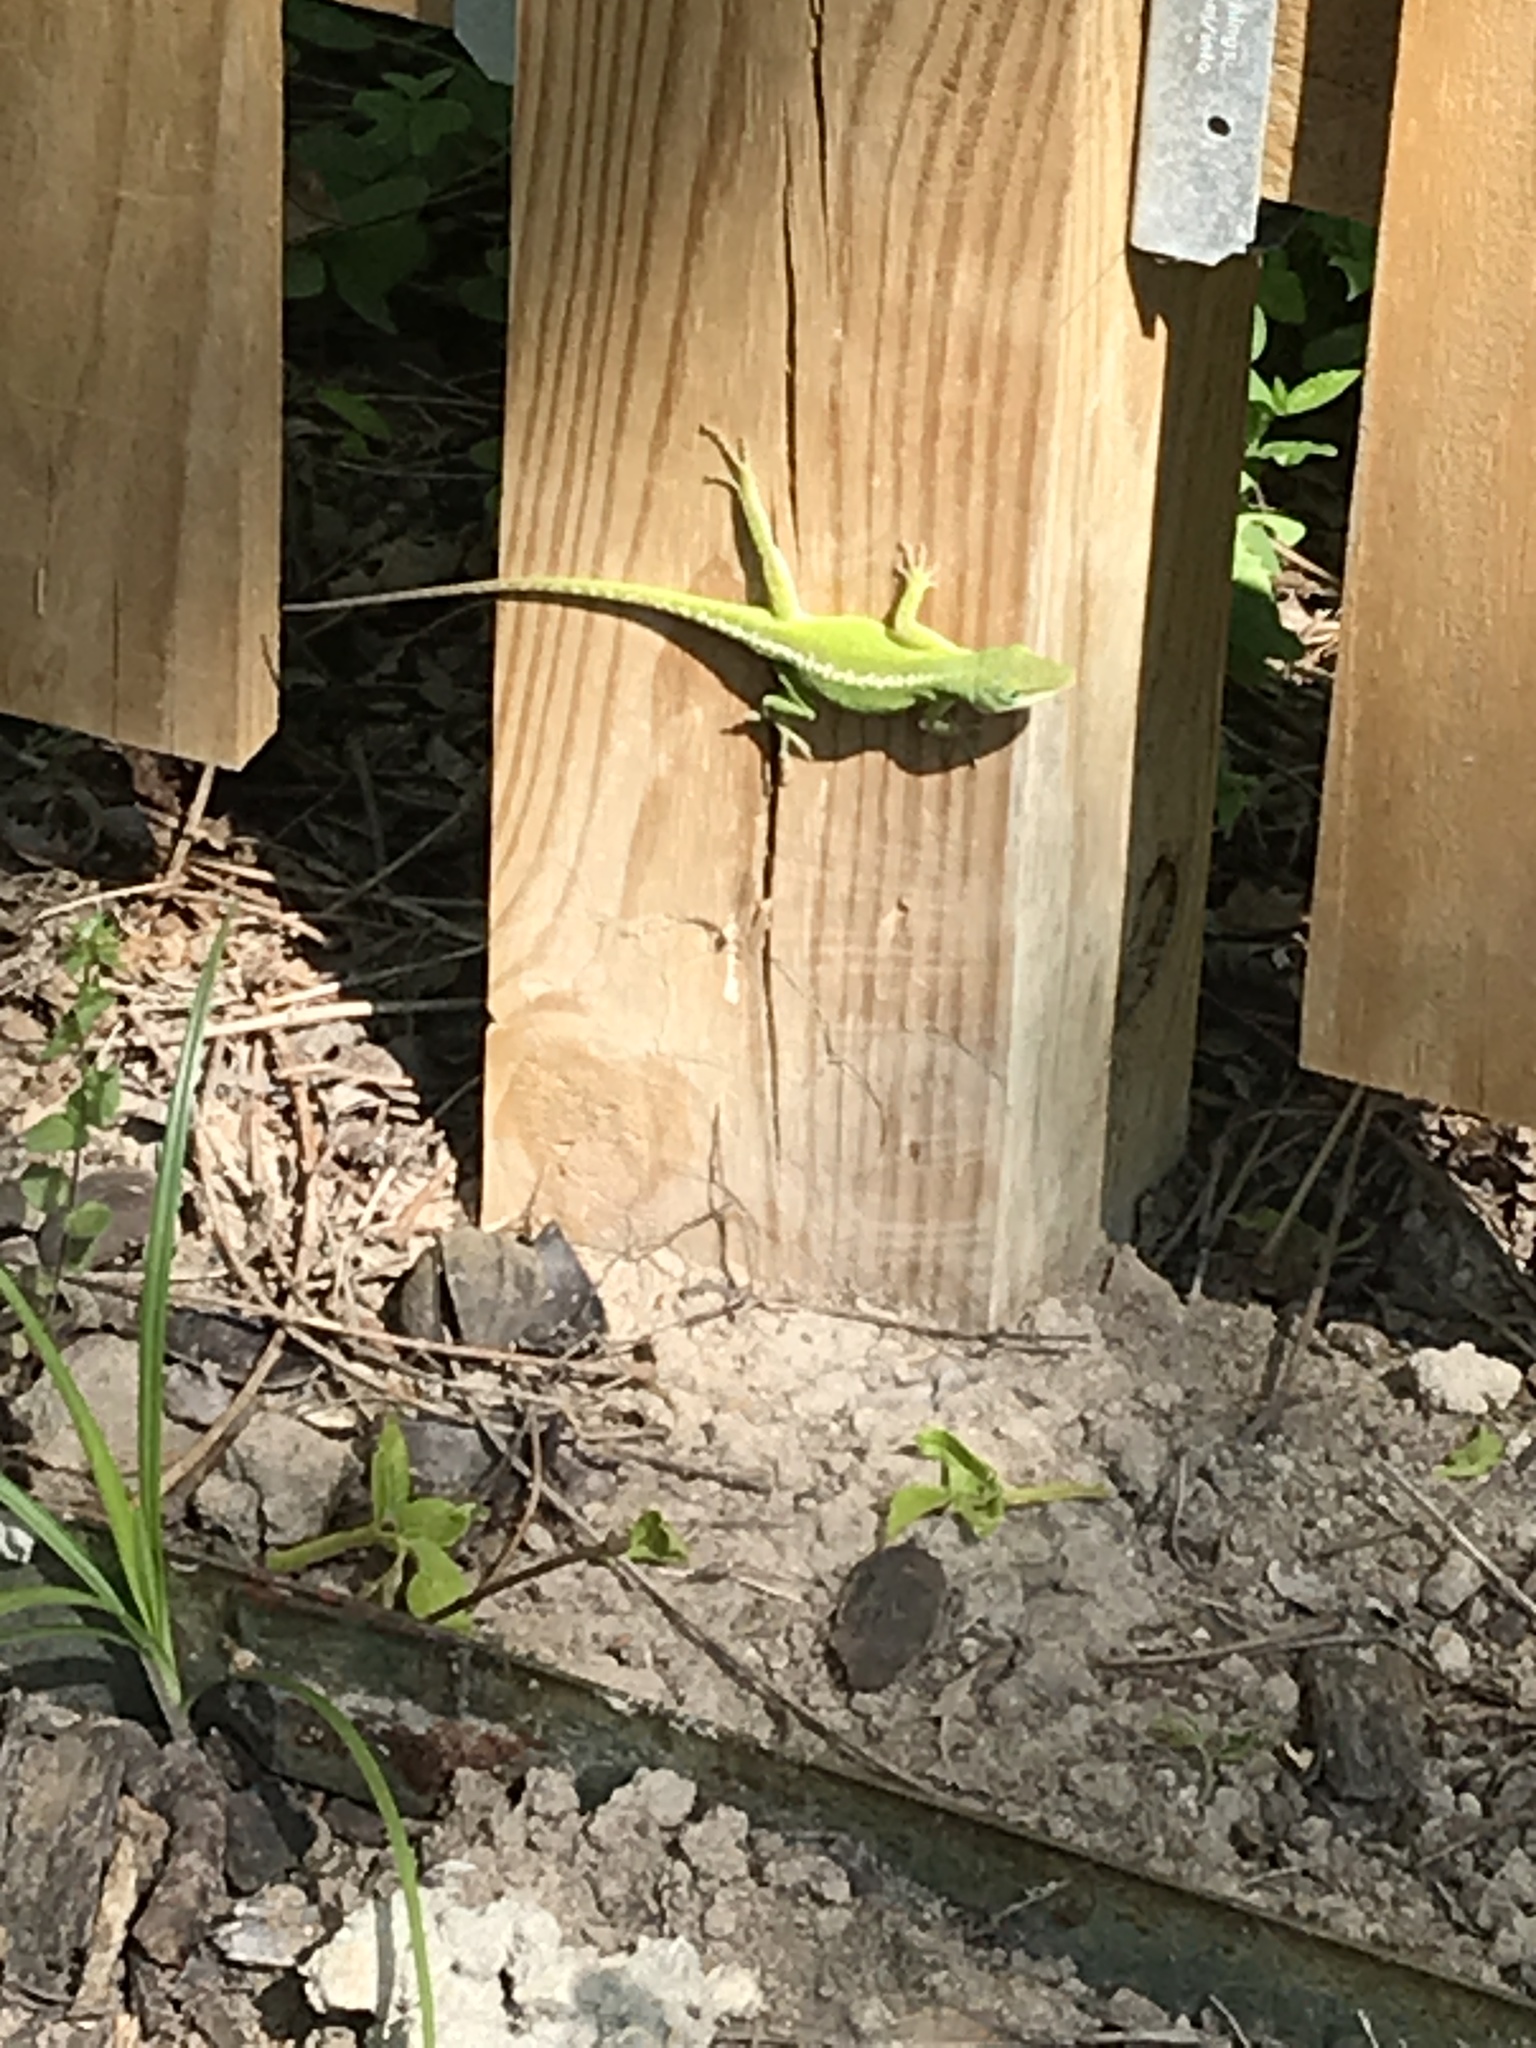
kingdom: Animalia
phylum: Chordata
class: Squamata
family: Dactyloidae
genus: Anolis
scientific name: Anolis carolinensis
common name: Green anole
